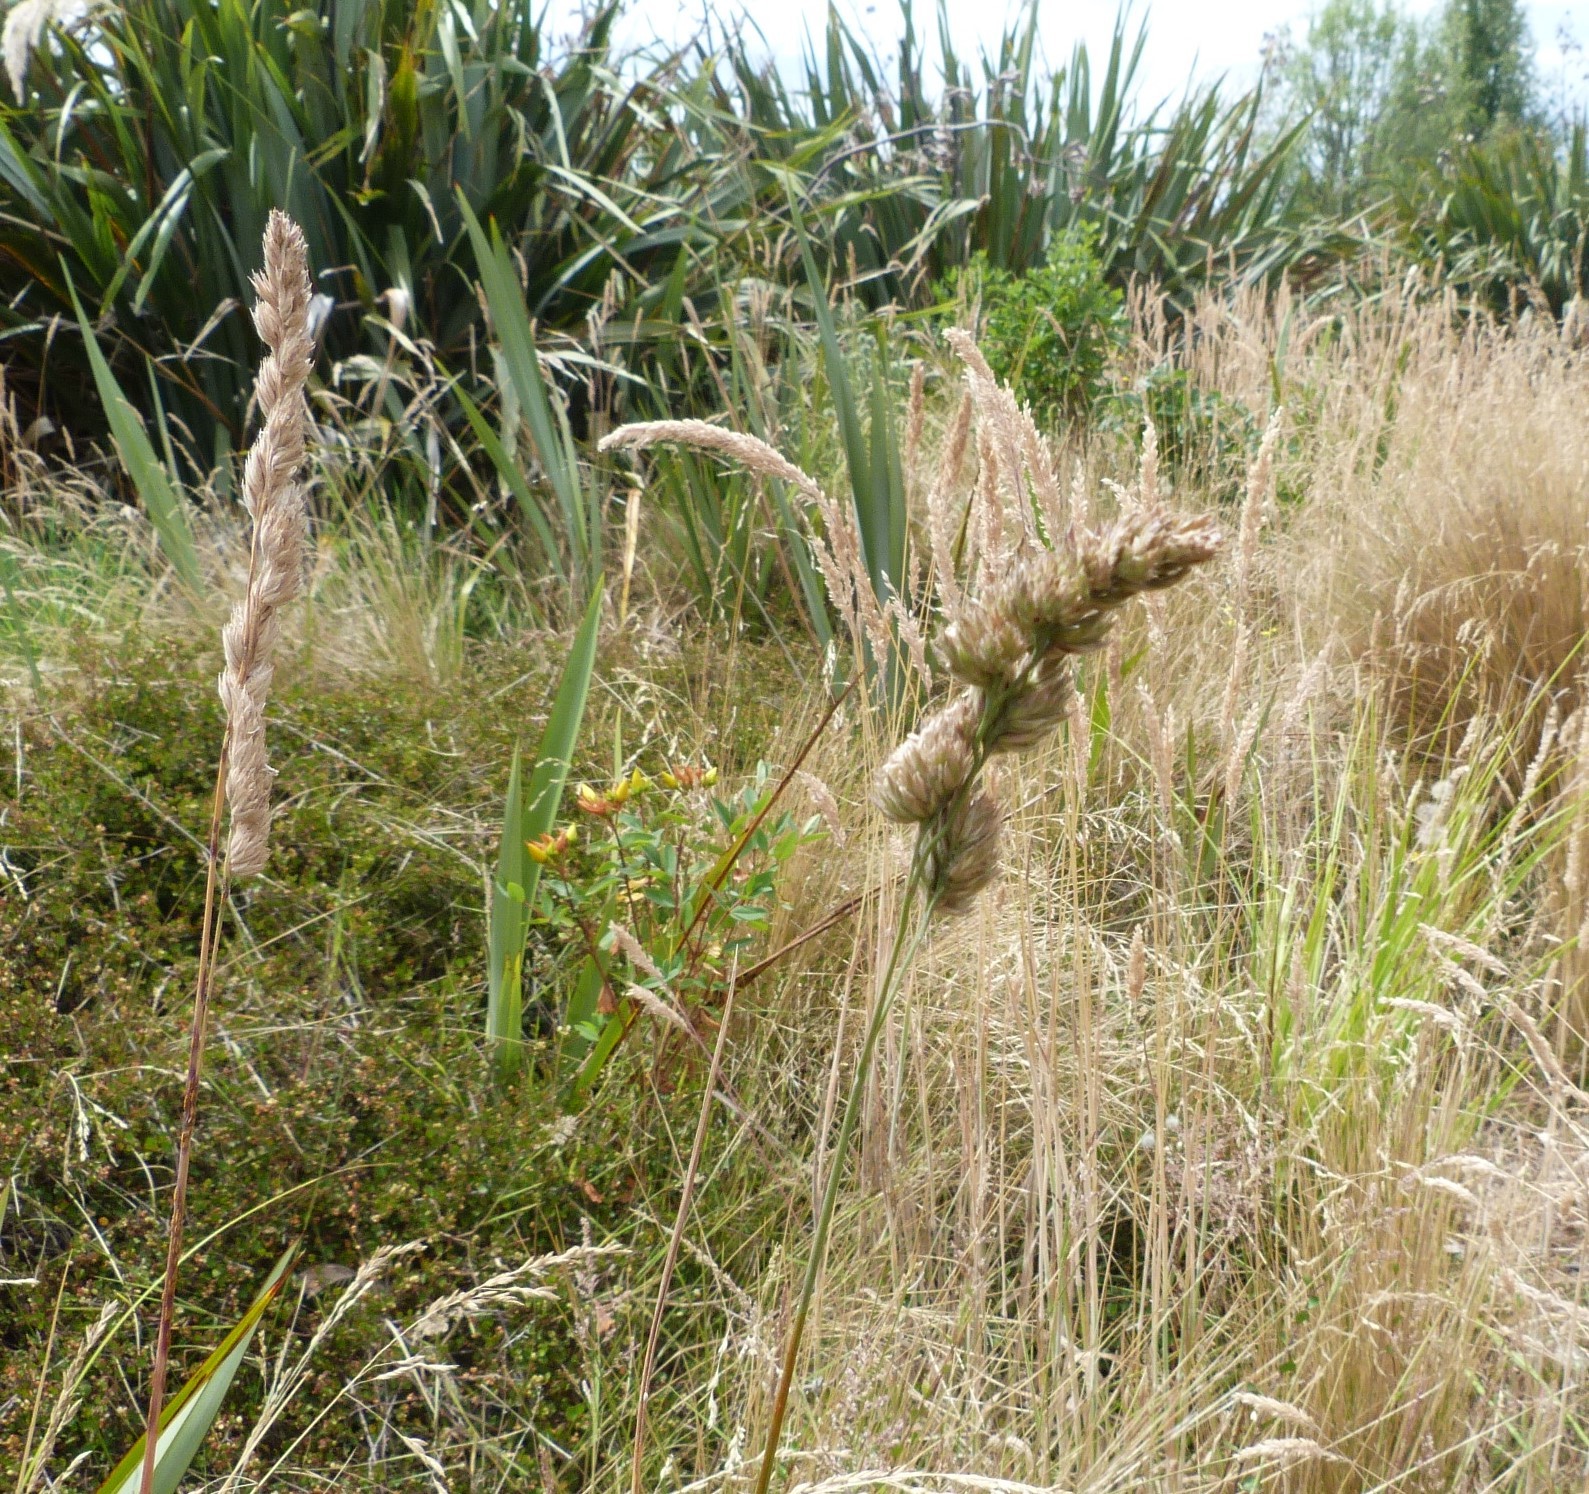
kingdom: Plantae
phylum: Tracheophyta
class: Liliopsida
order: Poales
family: Poaceae
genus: Dactylis
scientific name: Dactylis glomerata
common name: Orchardgrass
